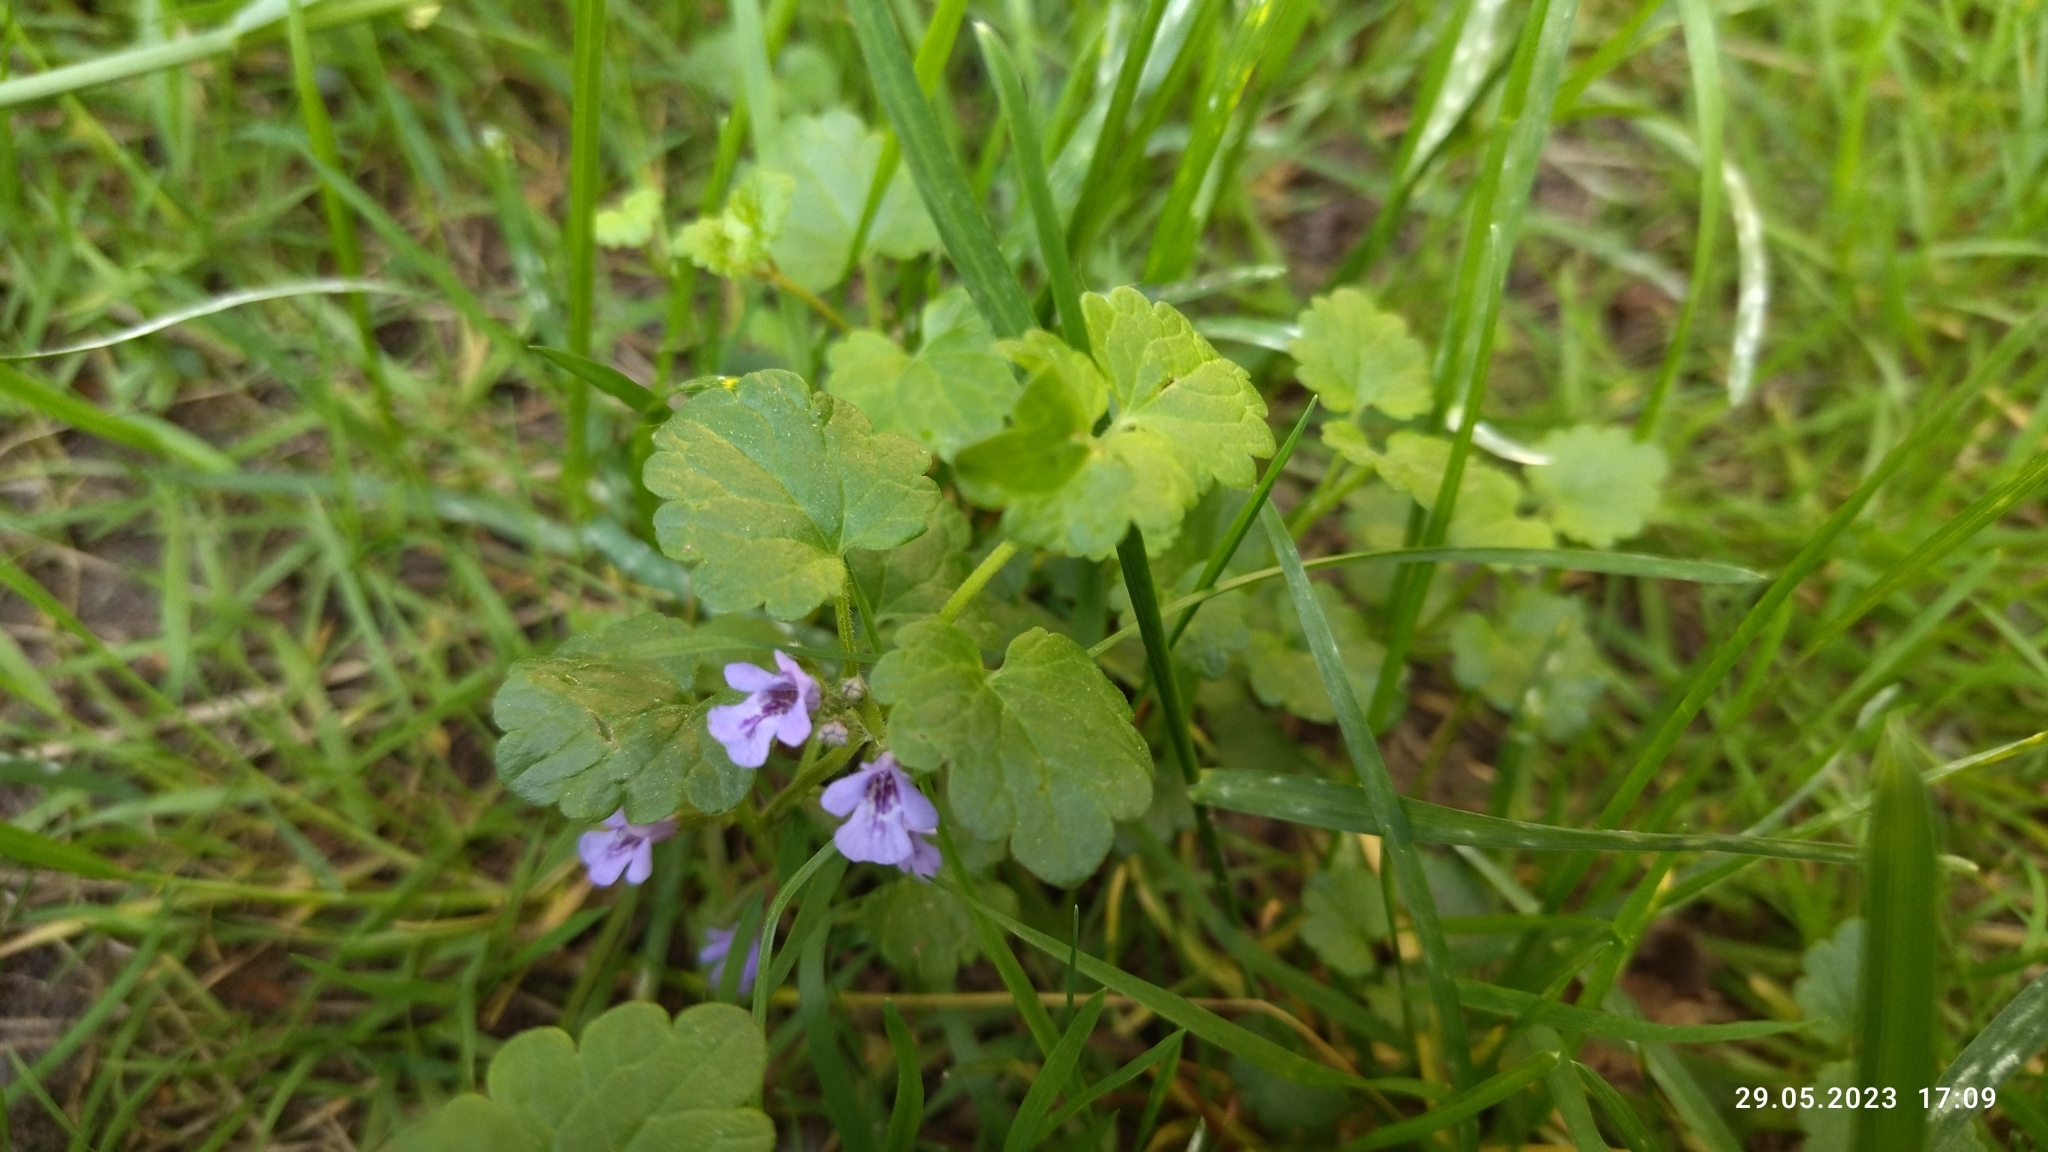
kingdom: Plantae
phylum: Tracheophyta
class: Magnoliopsida
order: Lamiales
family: Lamiaceae
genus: Glechoma
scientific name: Glechoma hederacea
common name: Ground ivy
